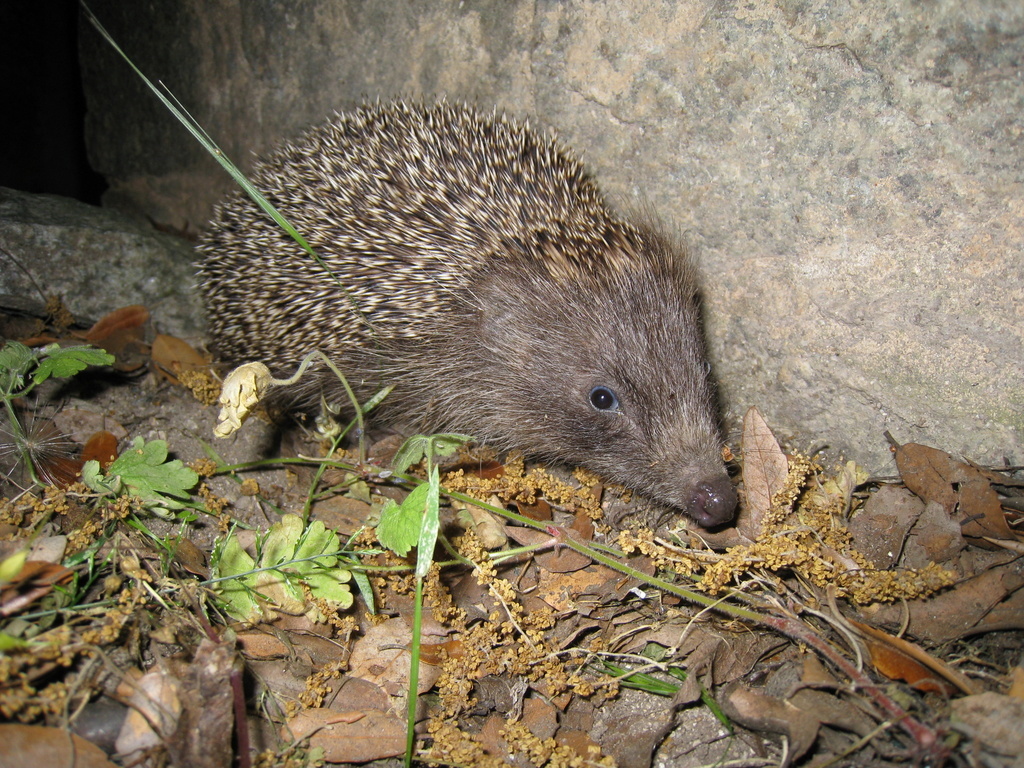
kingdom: Animalia
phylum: Chordata
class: Mammalia
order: Erinaceomorpha
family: Erinaceidae
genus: Erinaceus
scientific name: Erinaceus europaeus
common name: West european hedgehog
